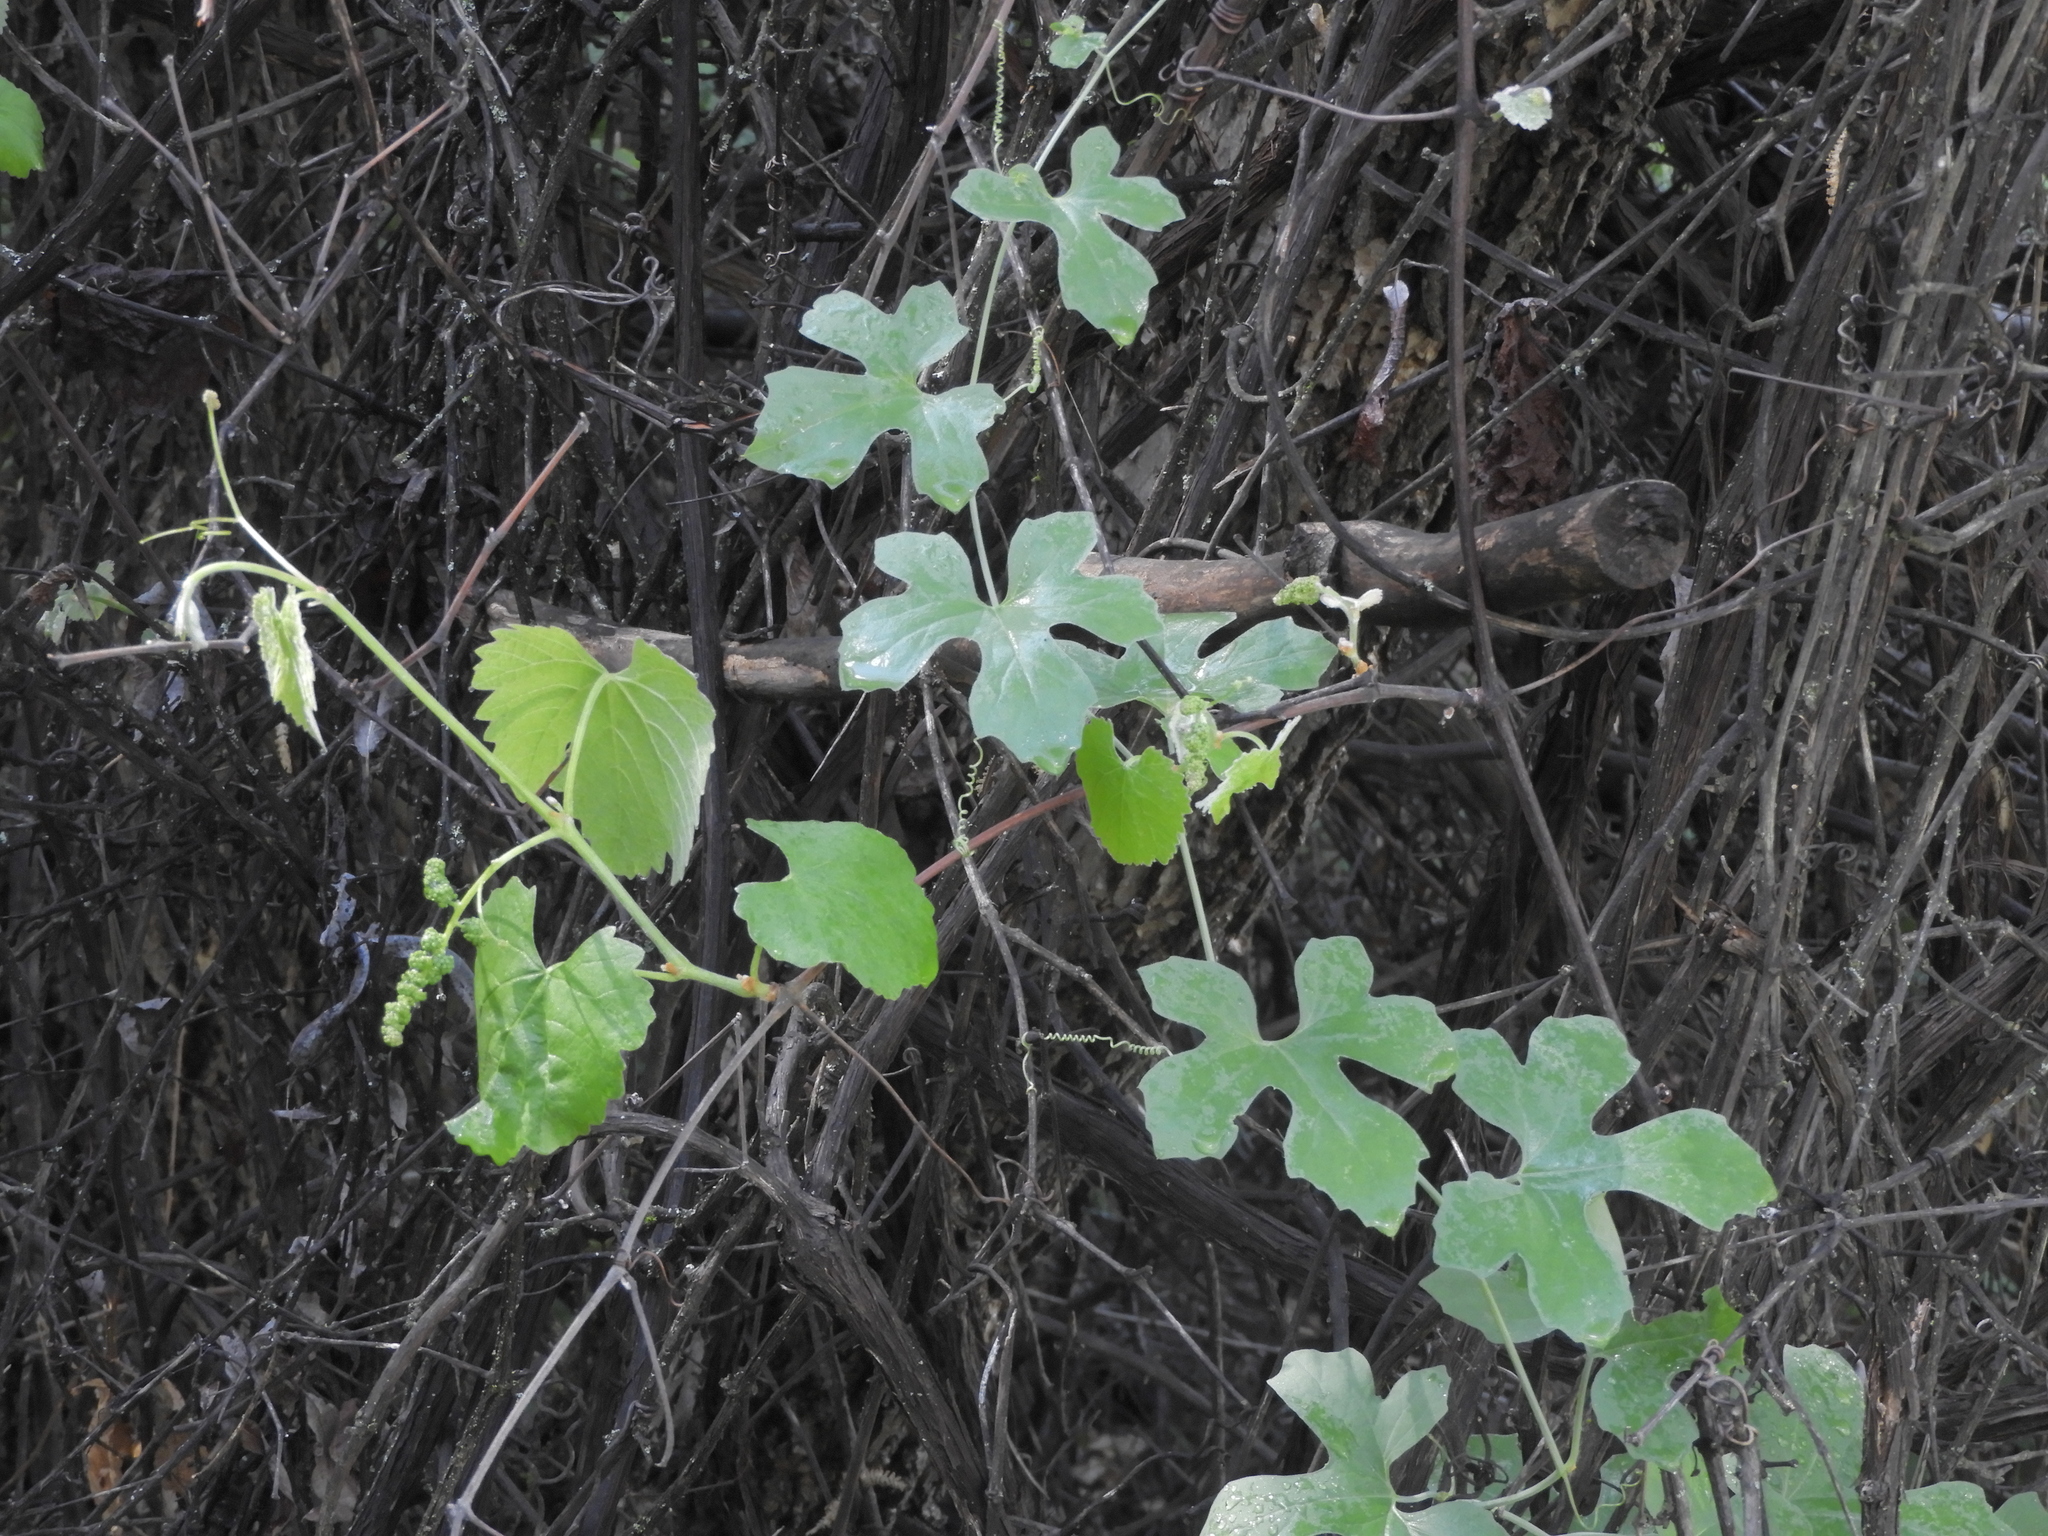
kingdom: Plantae
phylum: Tracheophyta
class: Magnoliopsida
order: Cucurbitales
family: Cucurbitaceae
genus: Marah
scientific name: Marah watsonii
